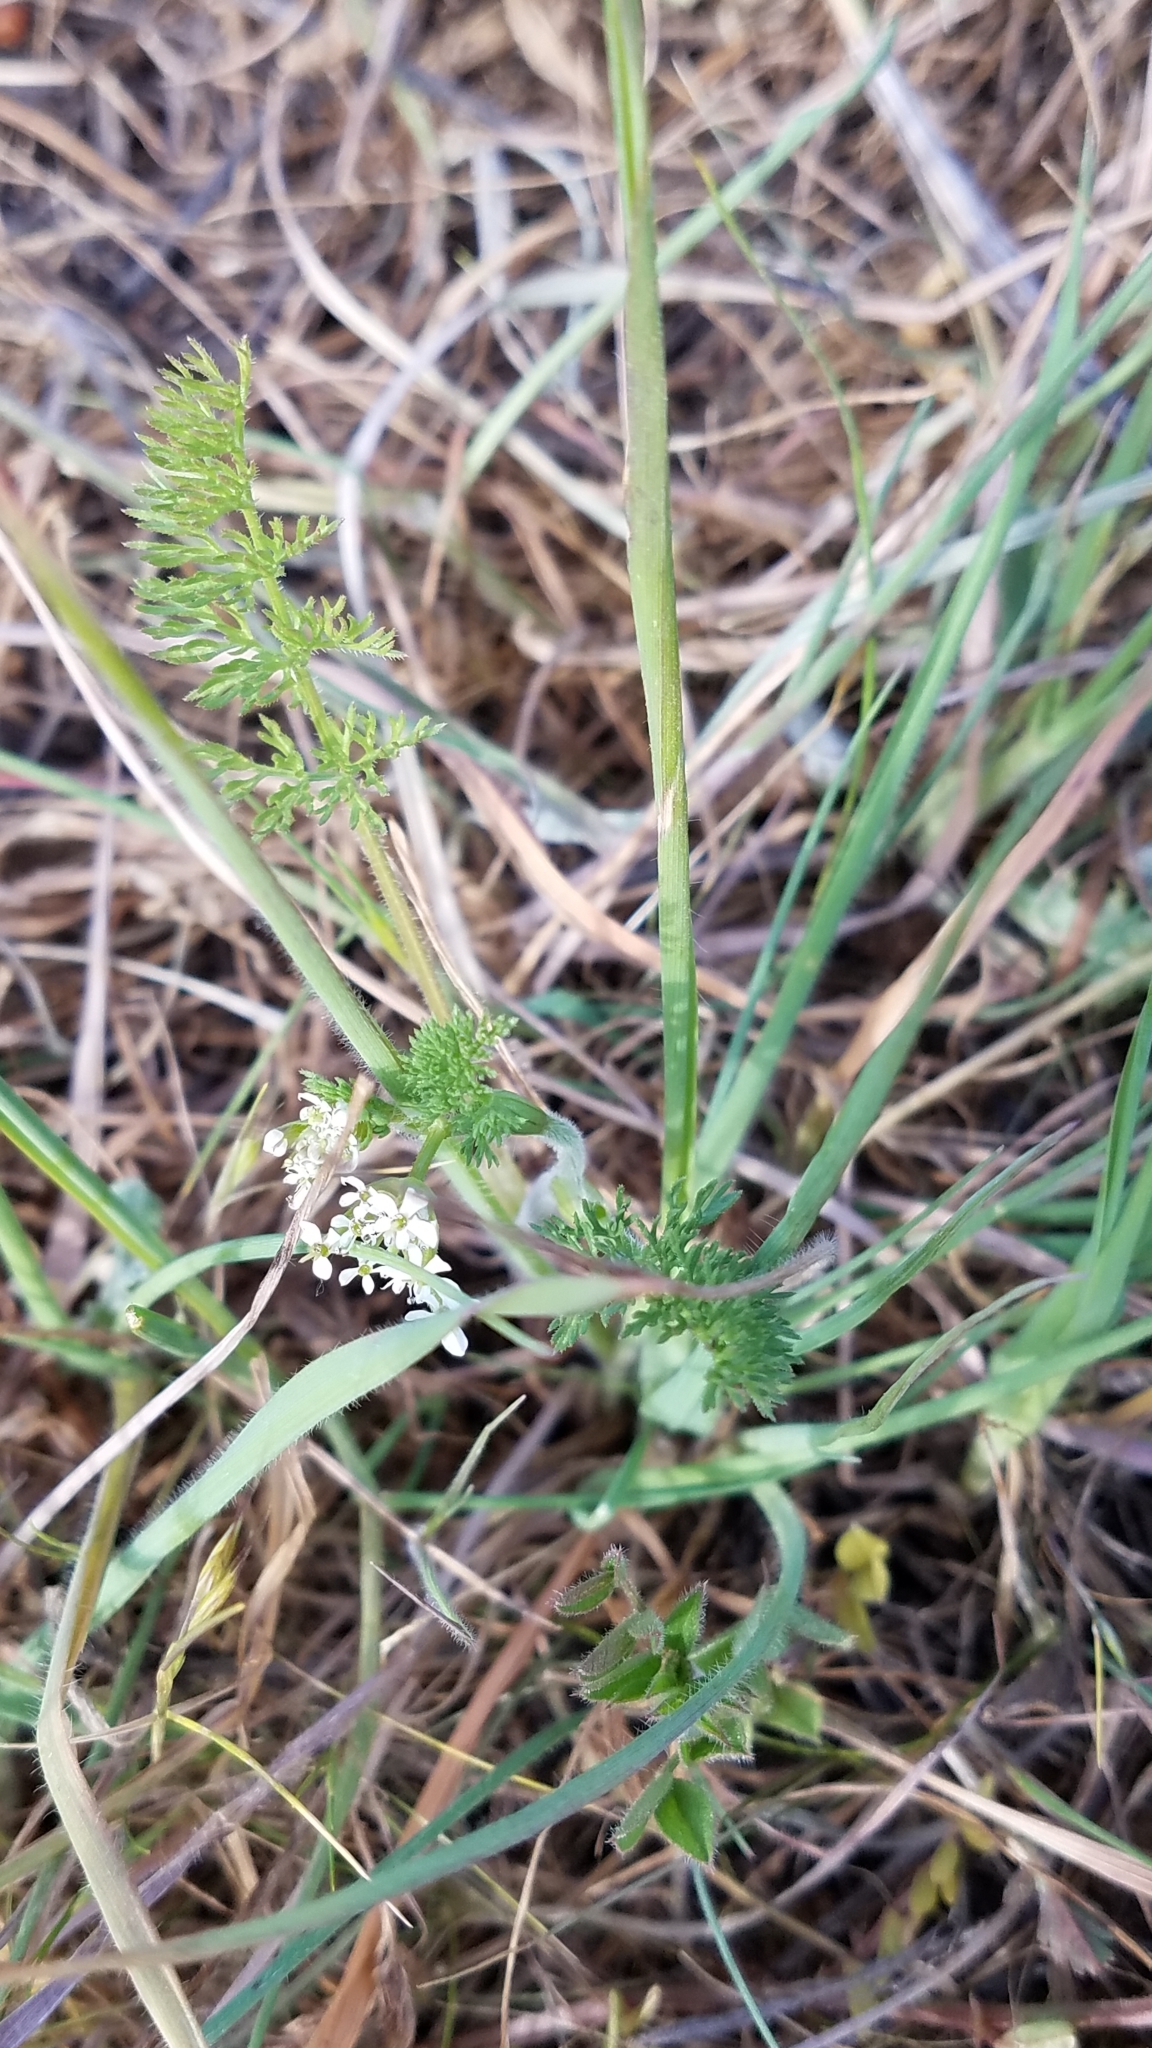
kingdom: Plantae
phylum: Tracheophyta
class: Magnoliopsida
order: Apiales
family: Apiaceae
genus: Scandix
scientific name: Scandix pecten-veneris
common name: Shepherd's-needle
